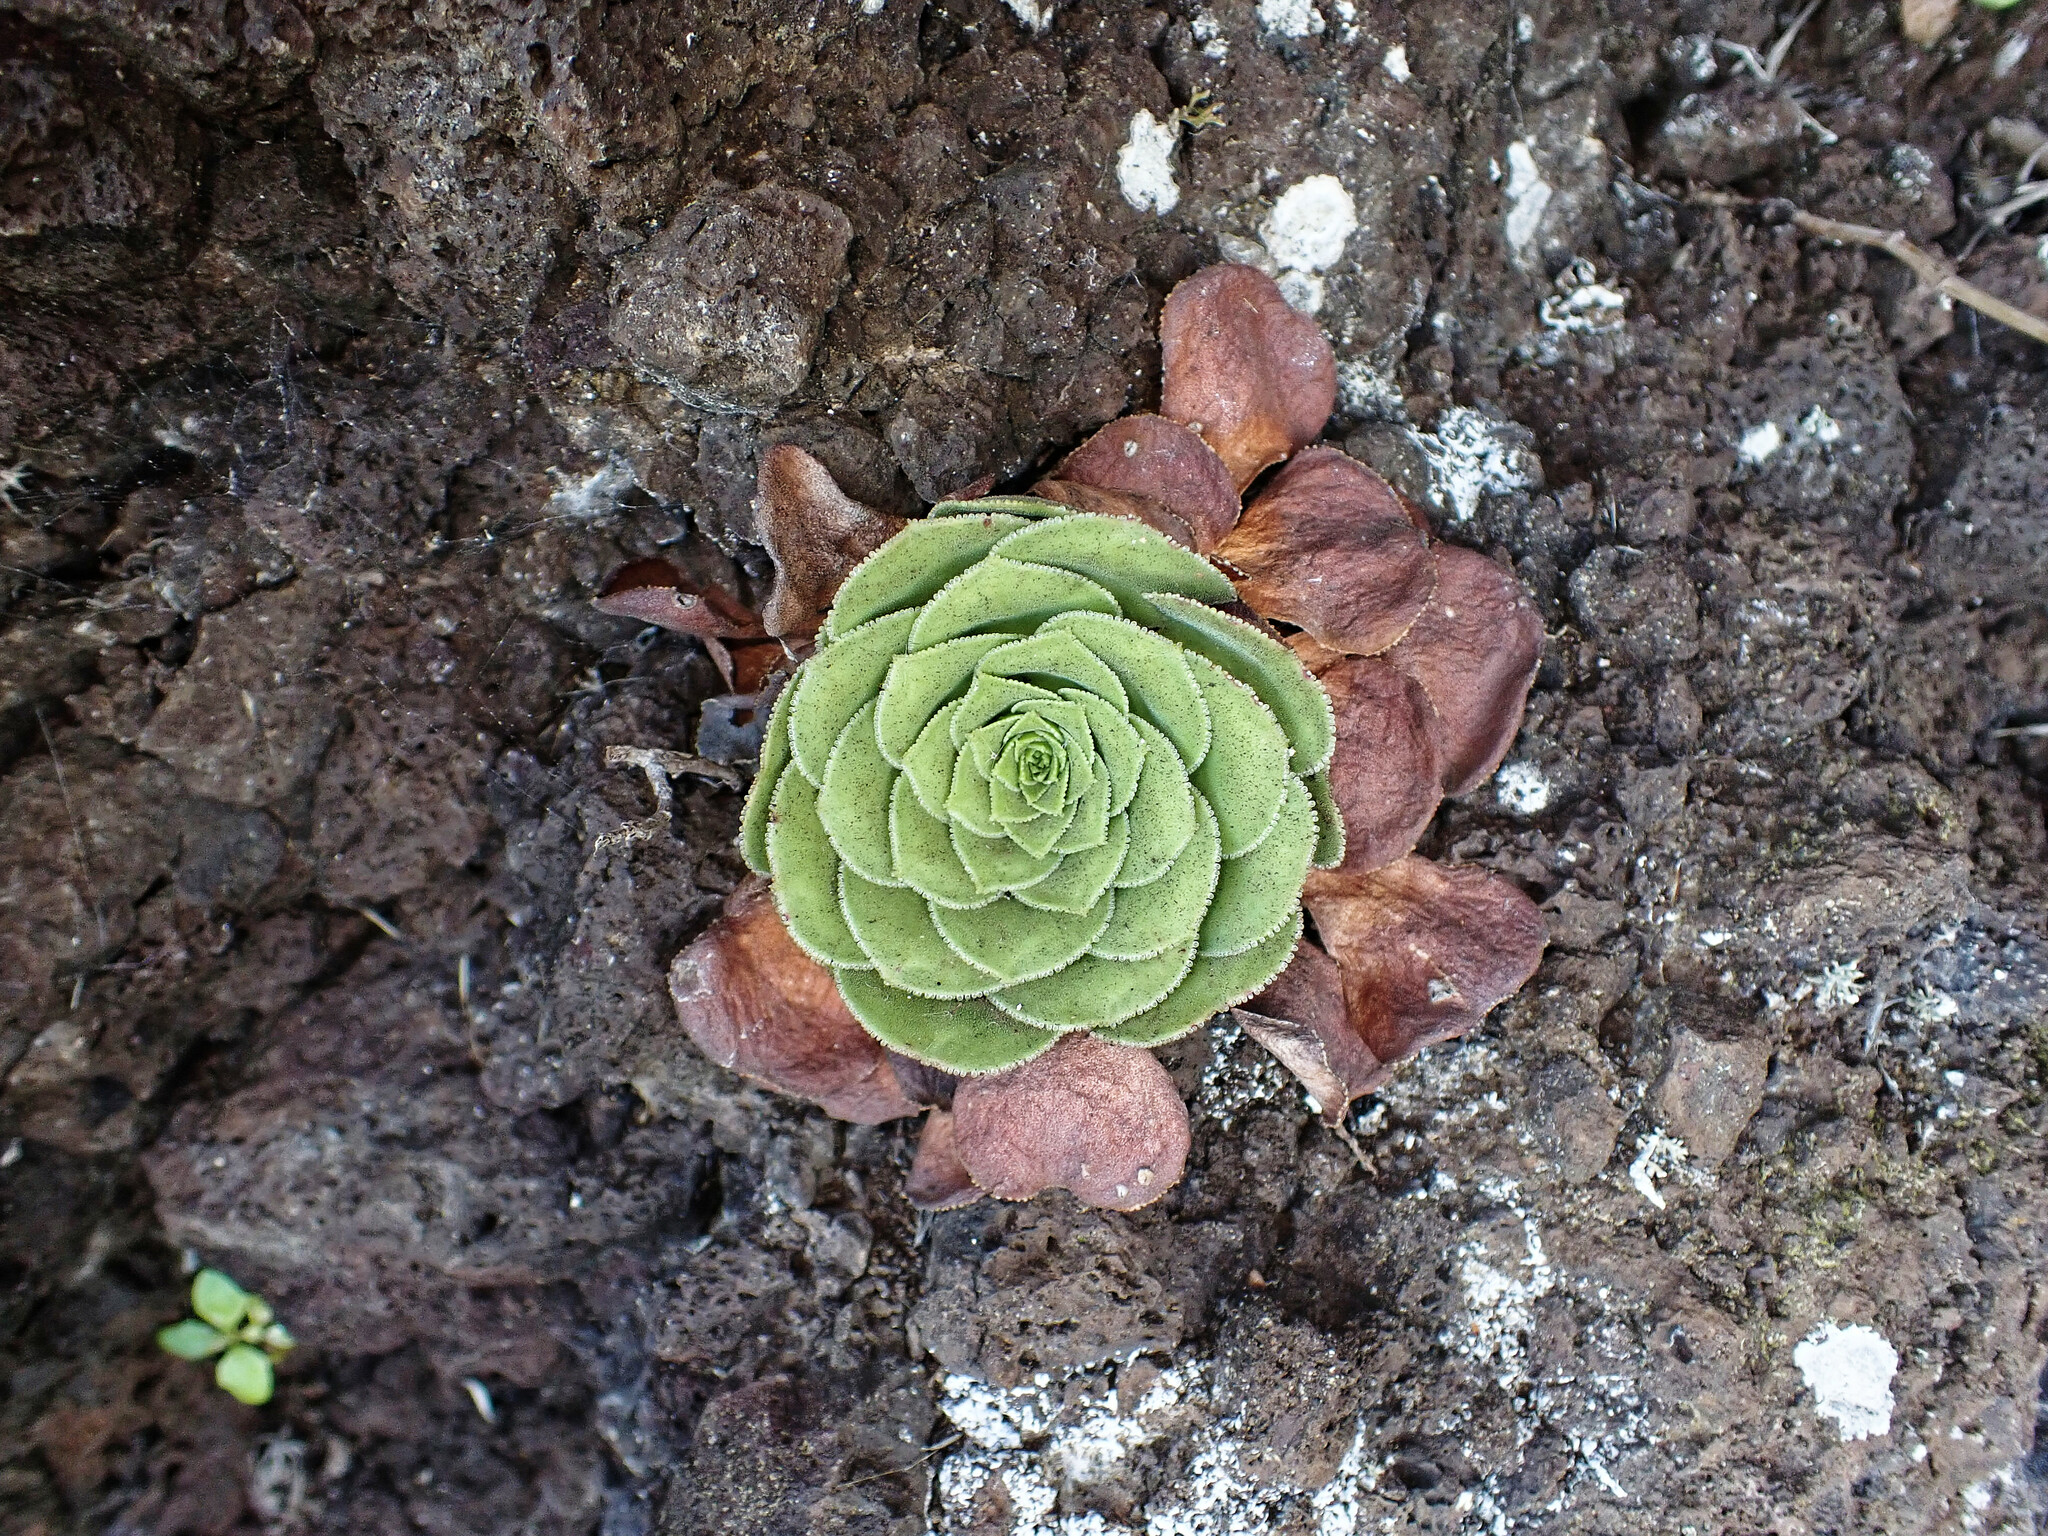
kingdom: Plantae
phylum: Tracheophyta
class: Magnoliopsida
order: Saxifragales
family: Crassulaceae
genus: Aeonium
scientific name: Aeonium glandulosum
